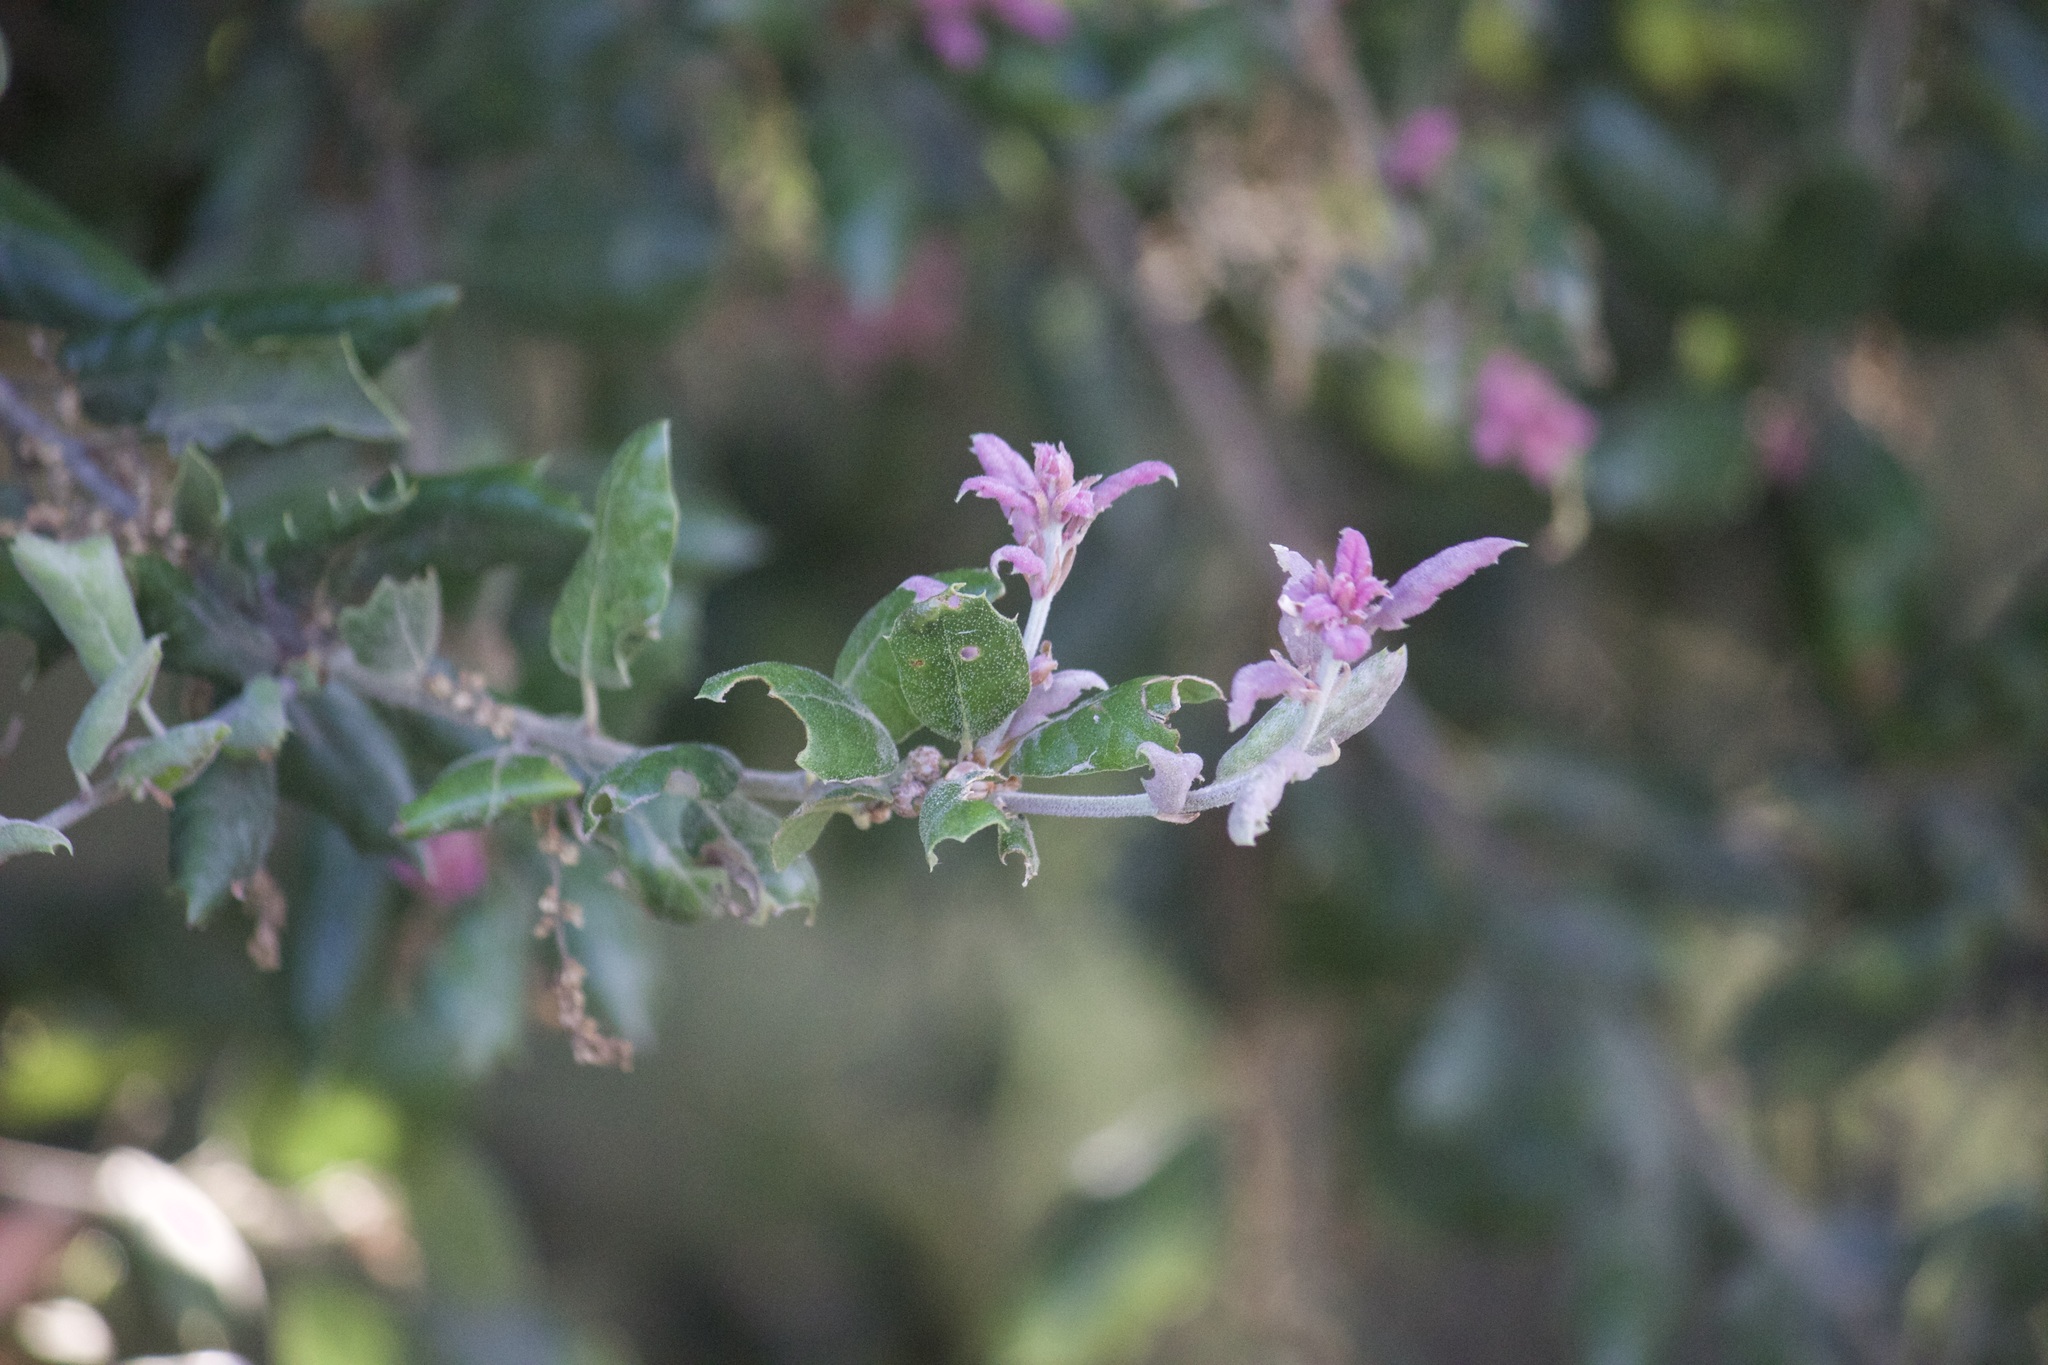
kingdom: Plantae
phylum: Tracheophyta
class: Magnoliopsida
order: Fagales
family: Fagaceae
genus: Quercus
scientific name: Quercus agrifolia
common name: California live oak
